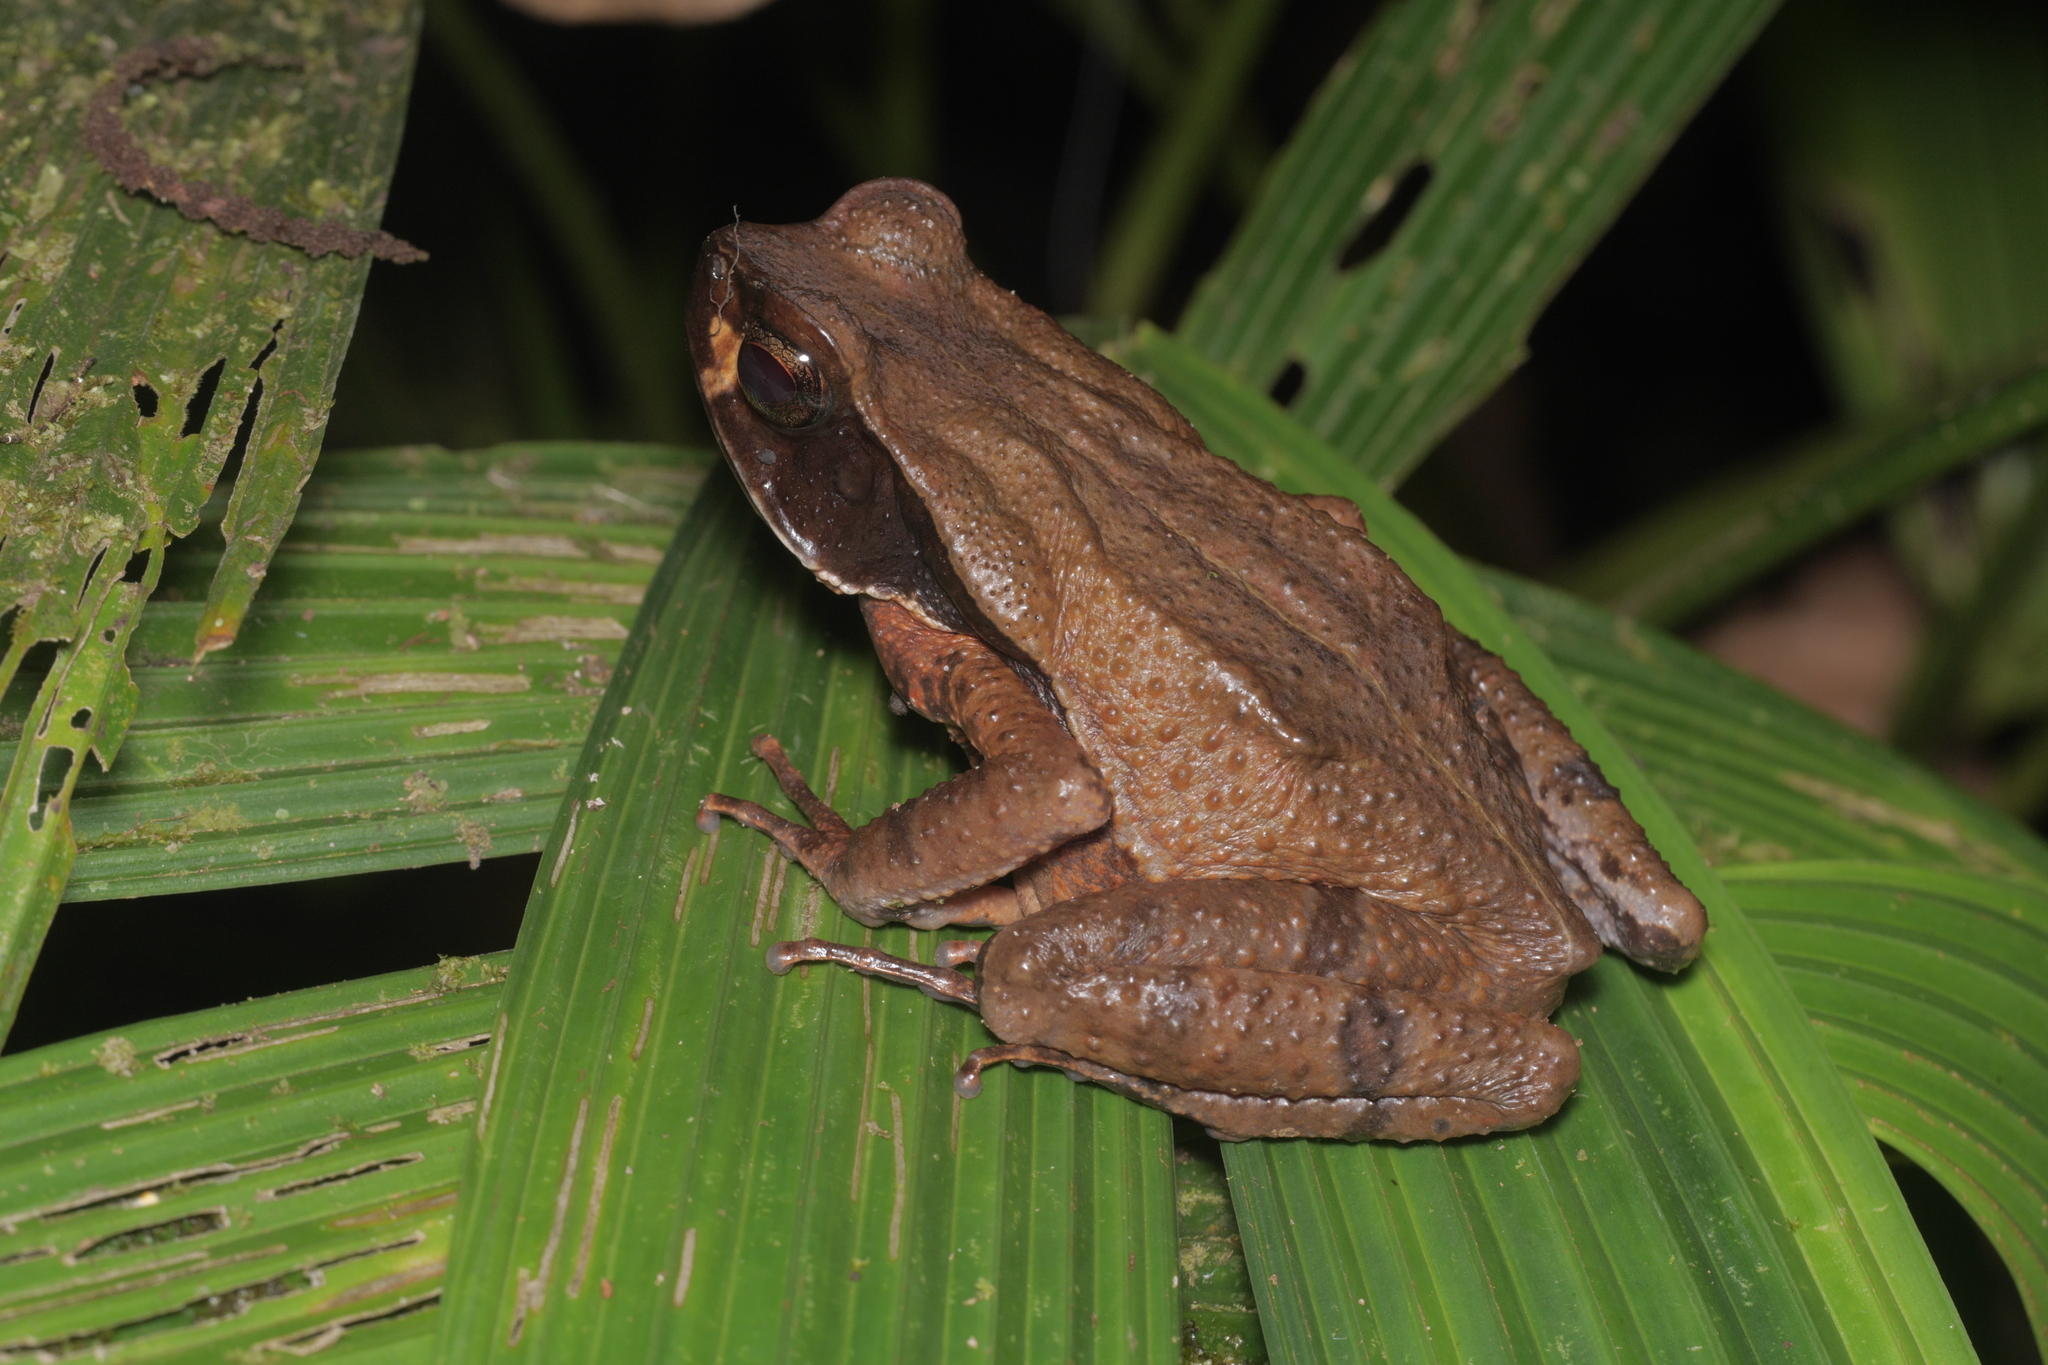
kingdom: Animalia
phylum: Chordata
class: Amphibia
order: Anura
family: Bufonidae
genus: Rhaebo
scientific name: Rhaebo haematiticus
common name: Truando toad
